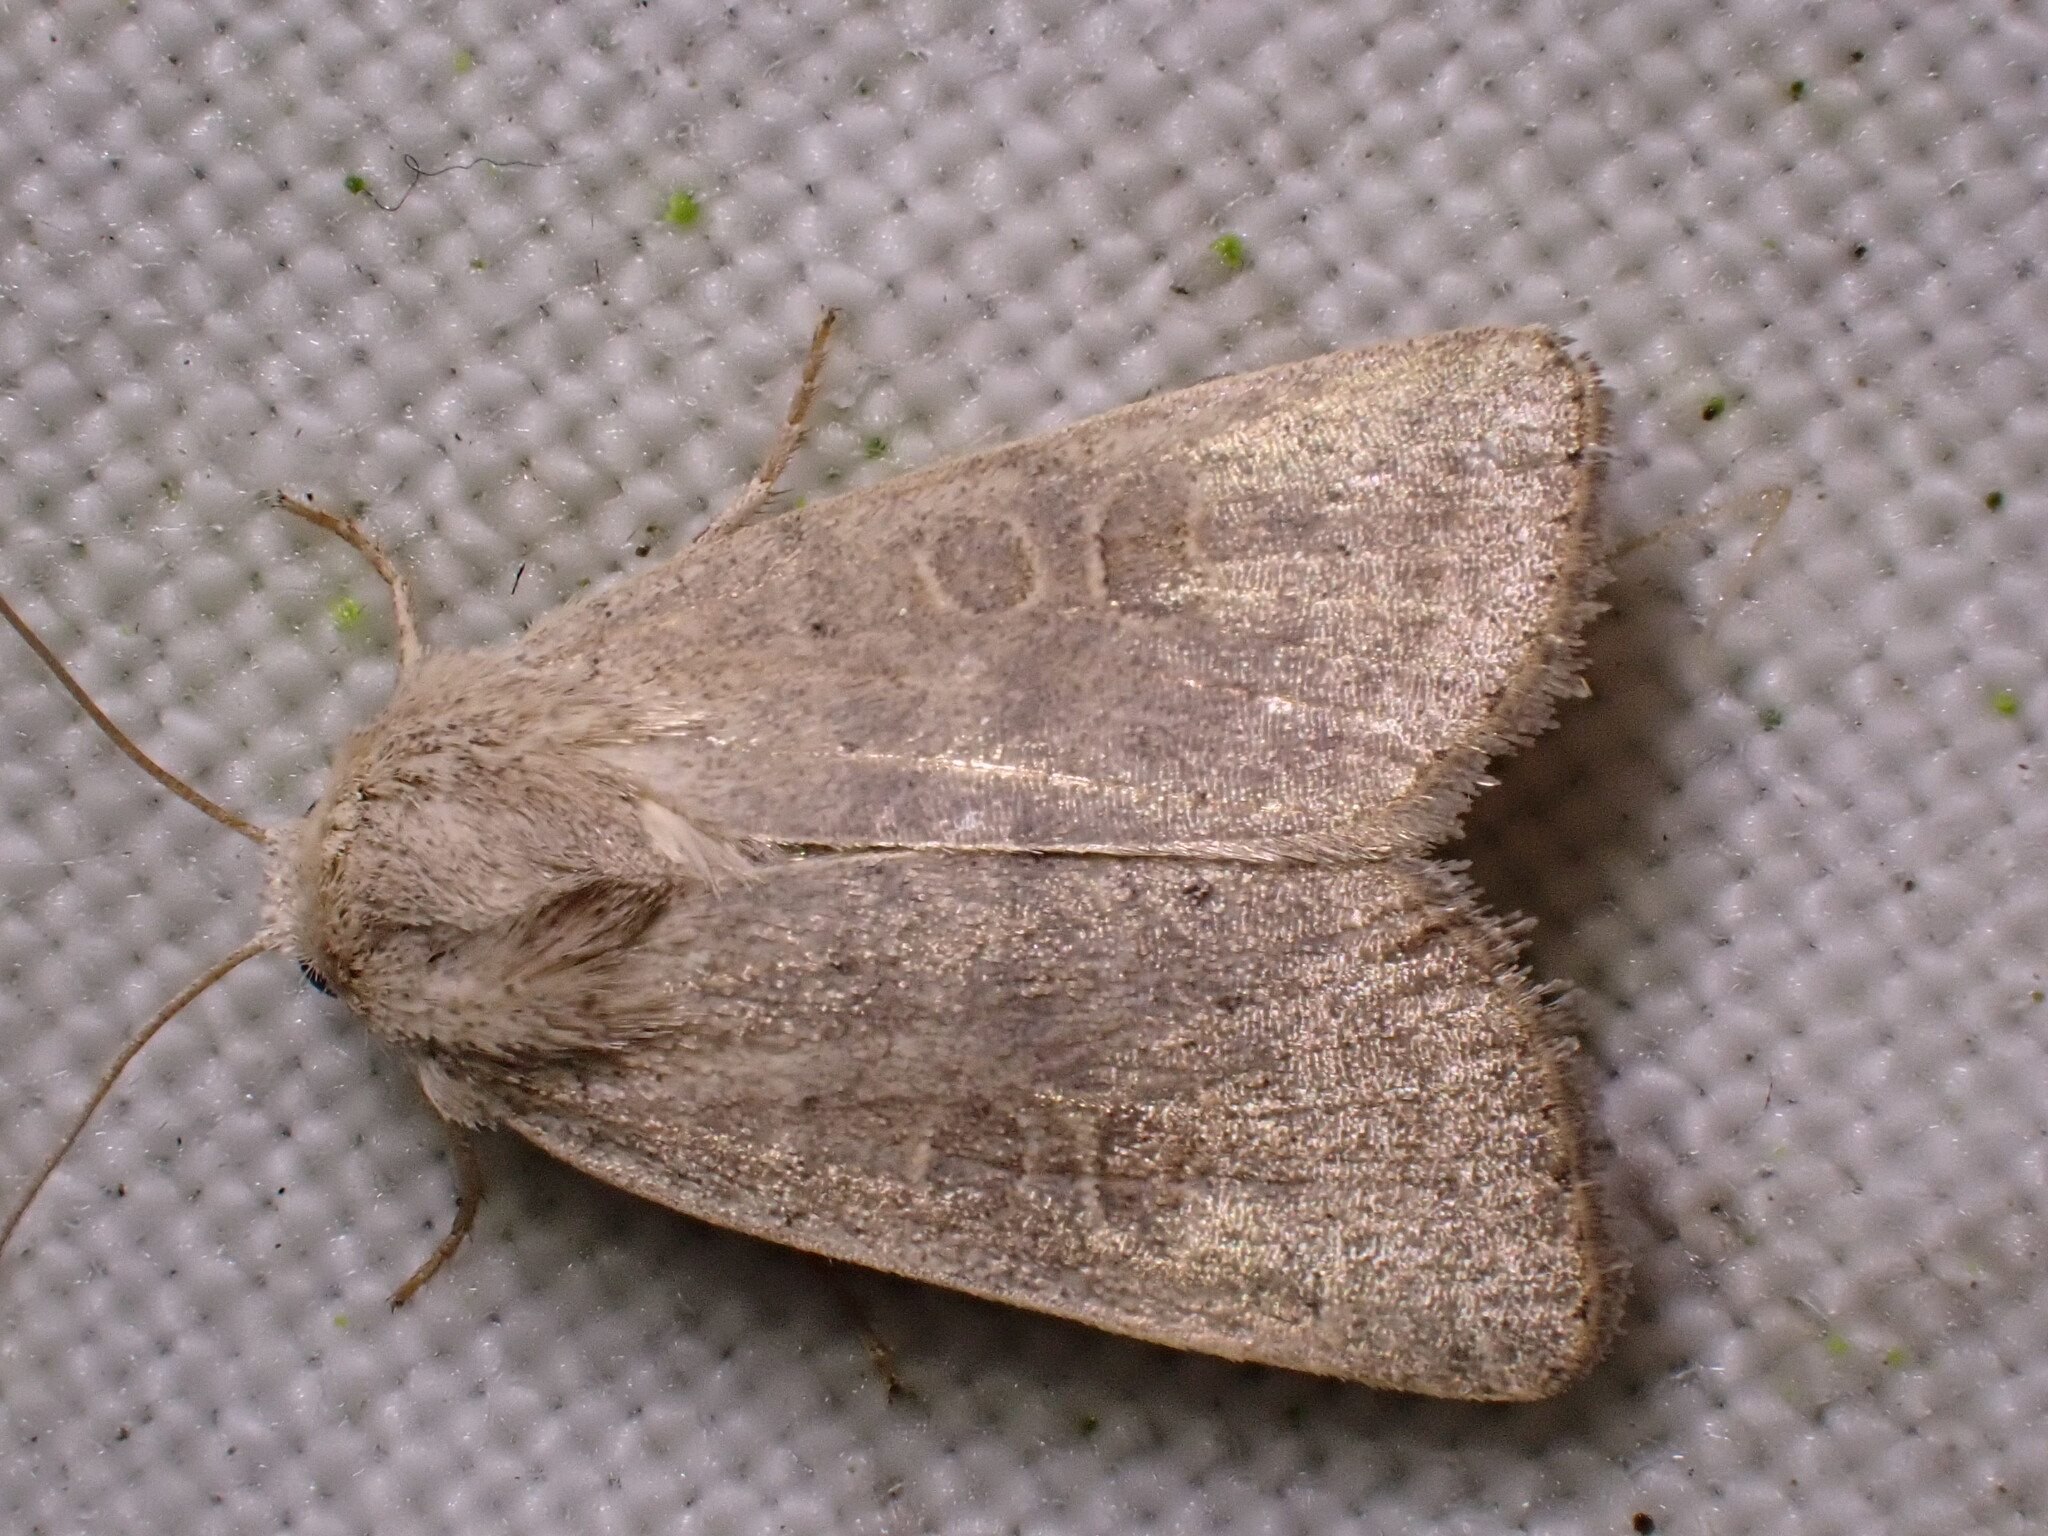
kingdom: Animalia
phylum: Arthropoda
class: Insecta
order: Lepidoptera
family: Noctuidae
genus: Hoplodrina
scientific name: Hoplodrina ambigua
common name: Vine's rustic
